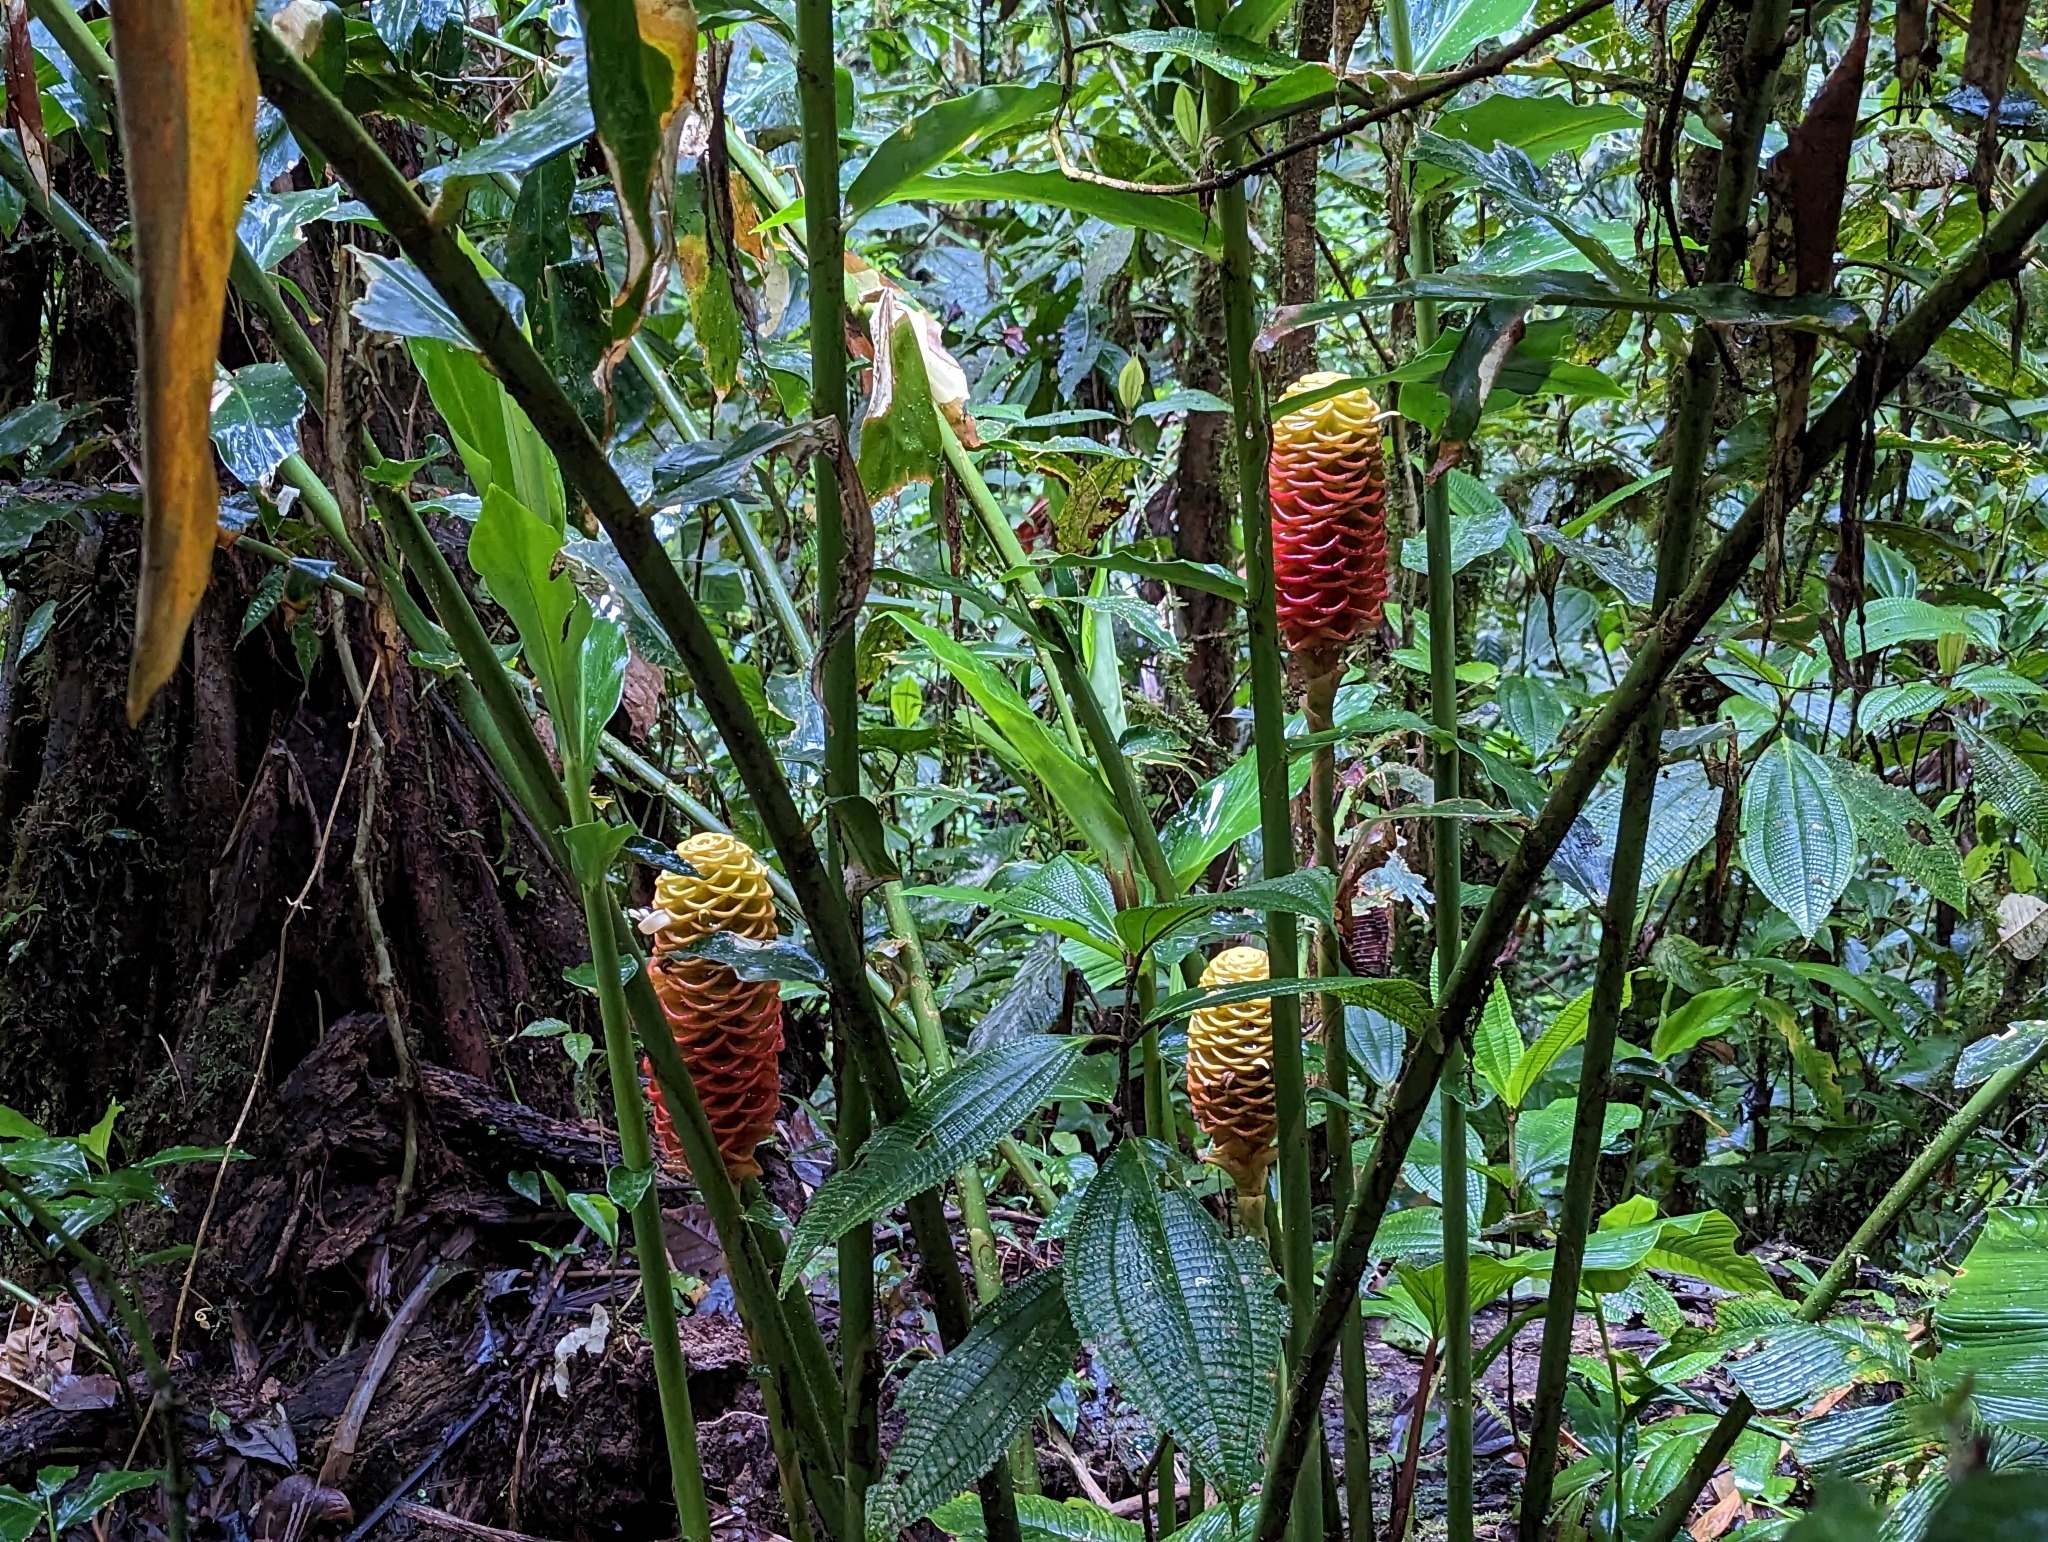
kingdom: Plantae
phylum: Tracheophyta
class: Liliopsida
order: Zingiberales
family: Zingiberaceae
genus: Zingiber
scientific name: Zingiber spectabile
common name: Beehive ginger
